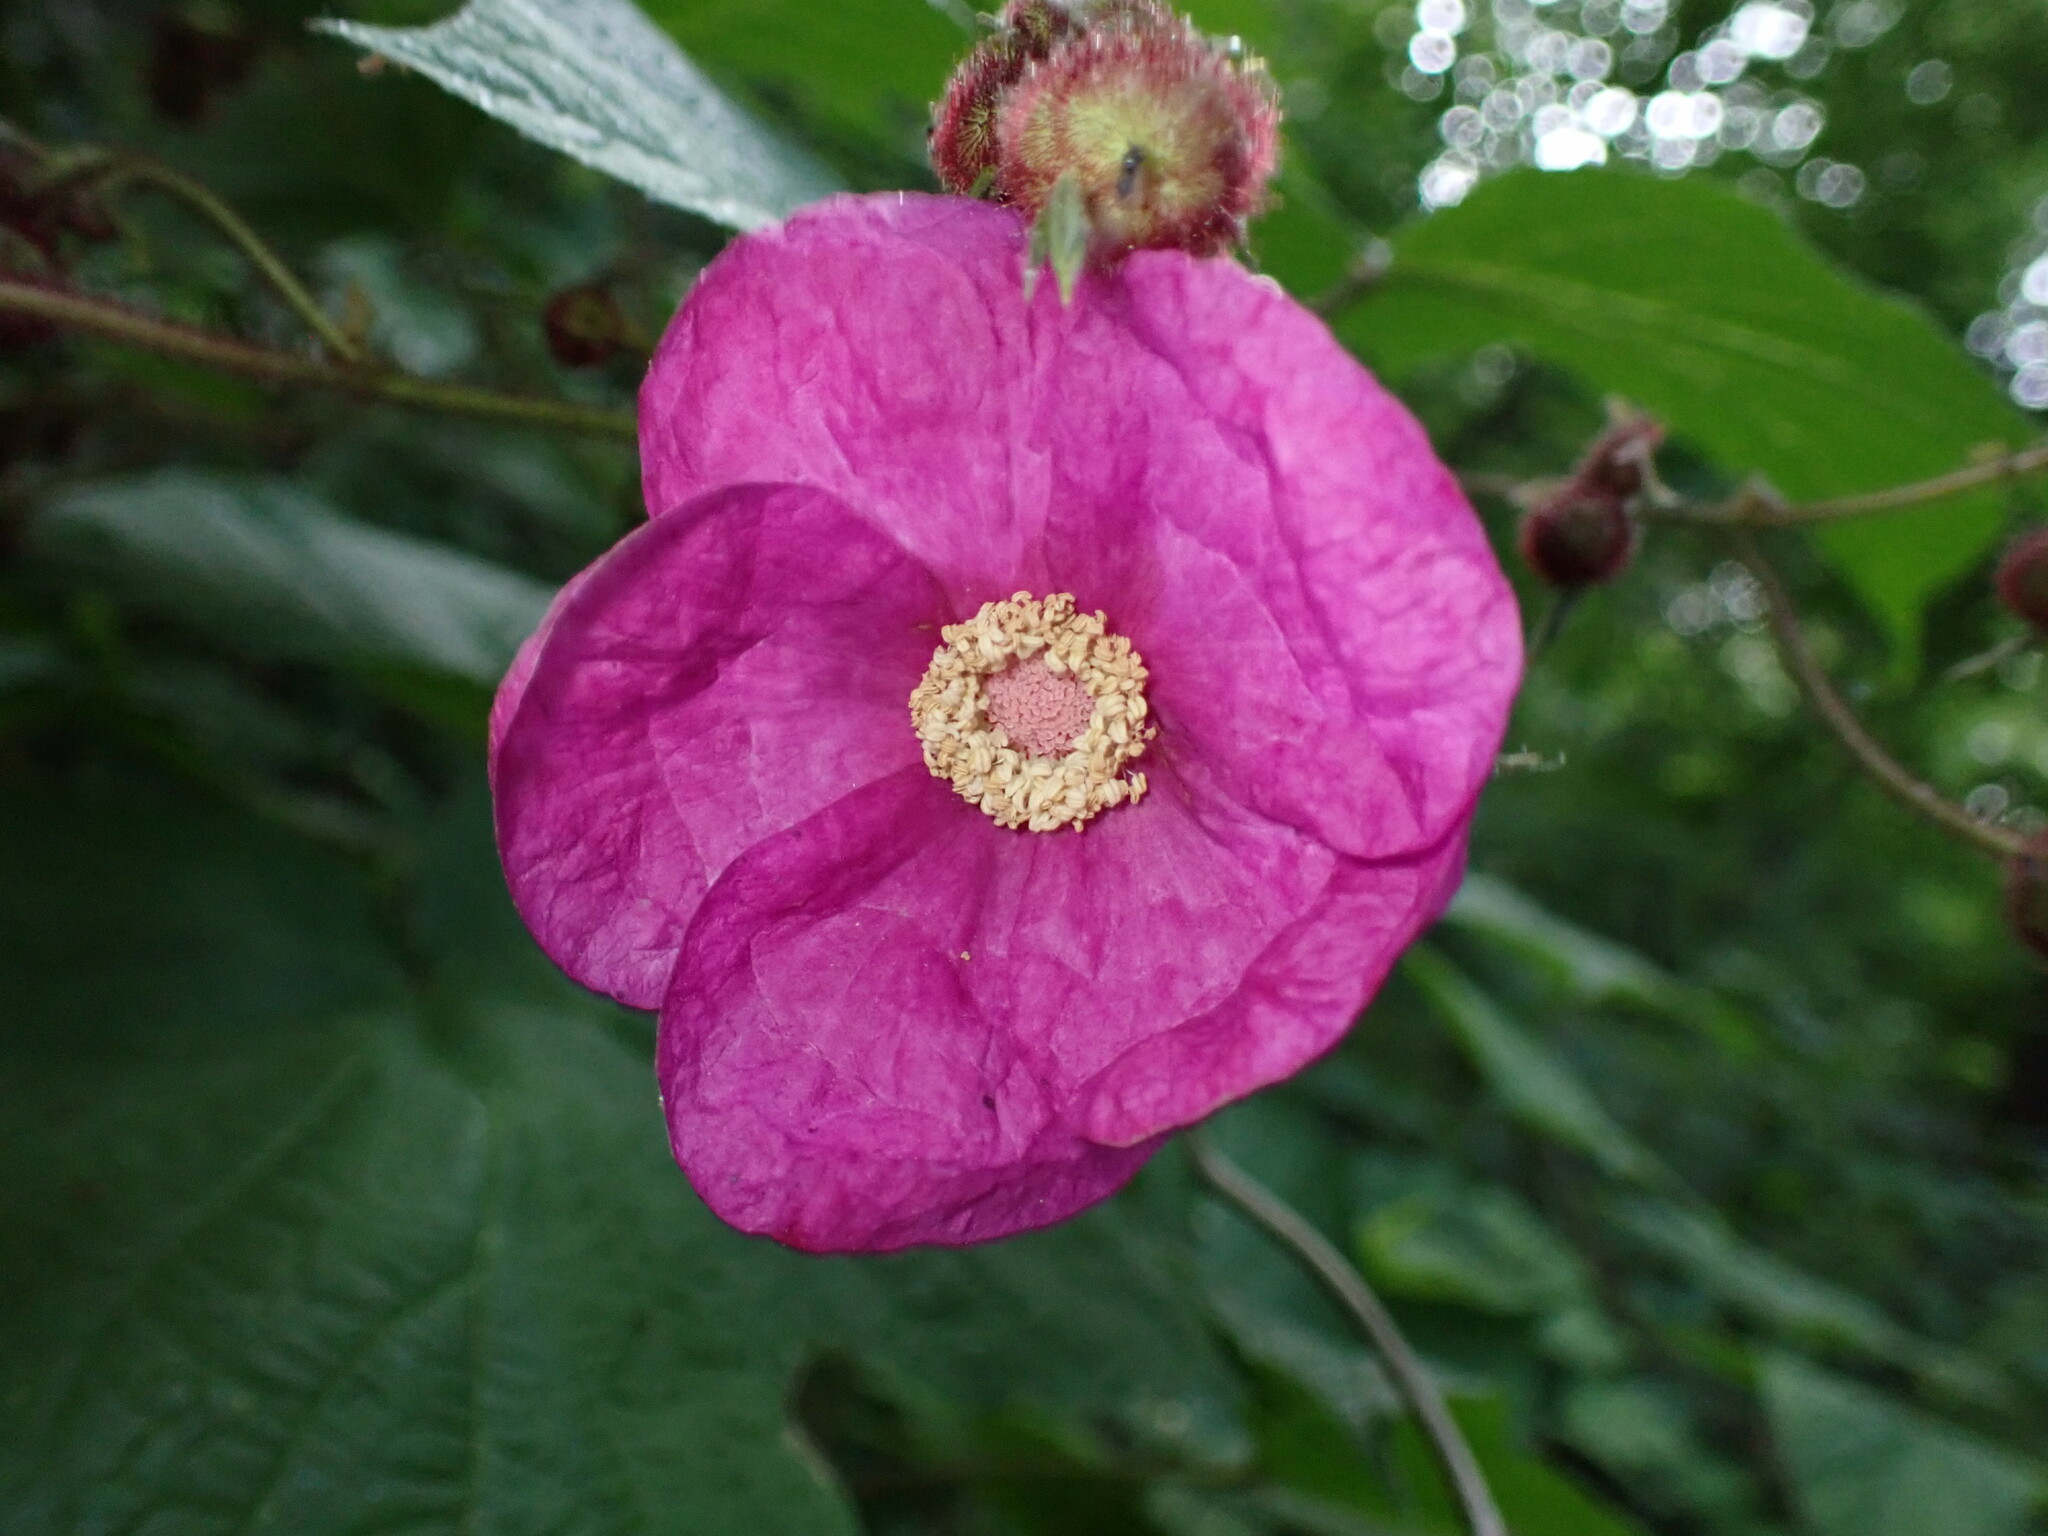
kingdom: Plantae
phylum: Tracheophyta
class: Magnoliopsida
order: Rosales
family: Rosaceae
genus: Rubus
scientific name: Rubus odoratus
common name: Purple-flowered raspberry
